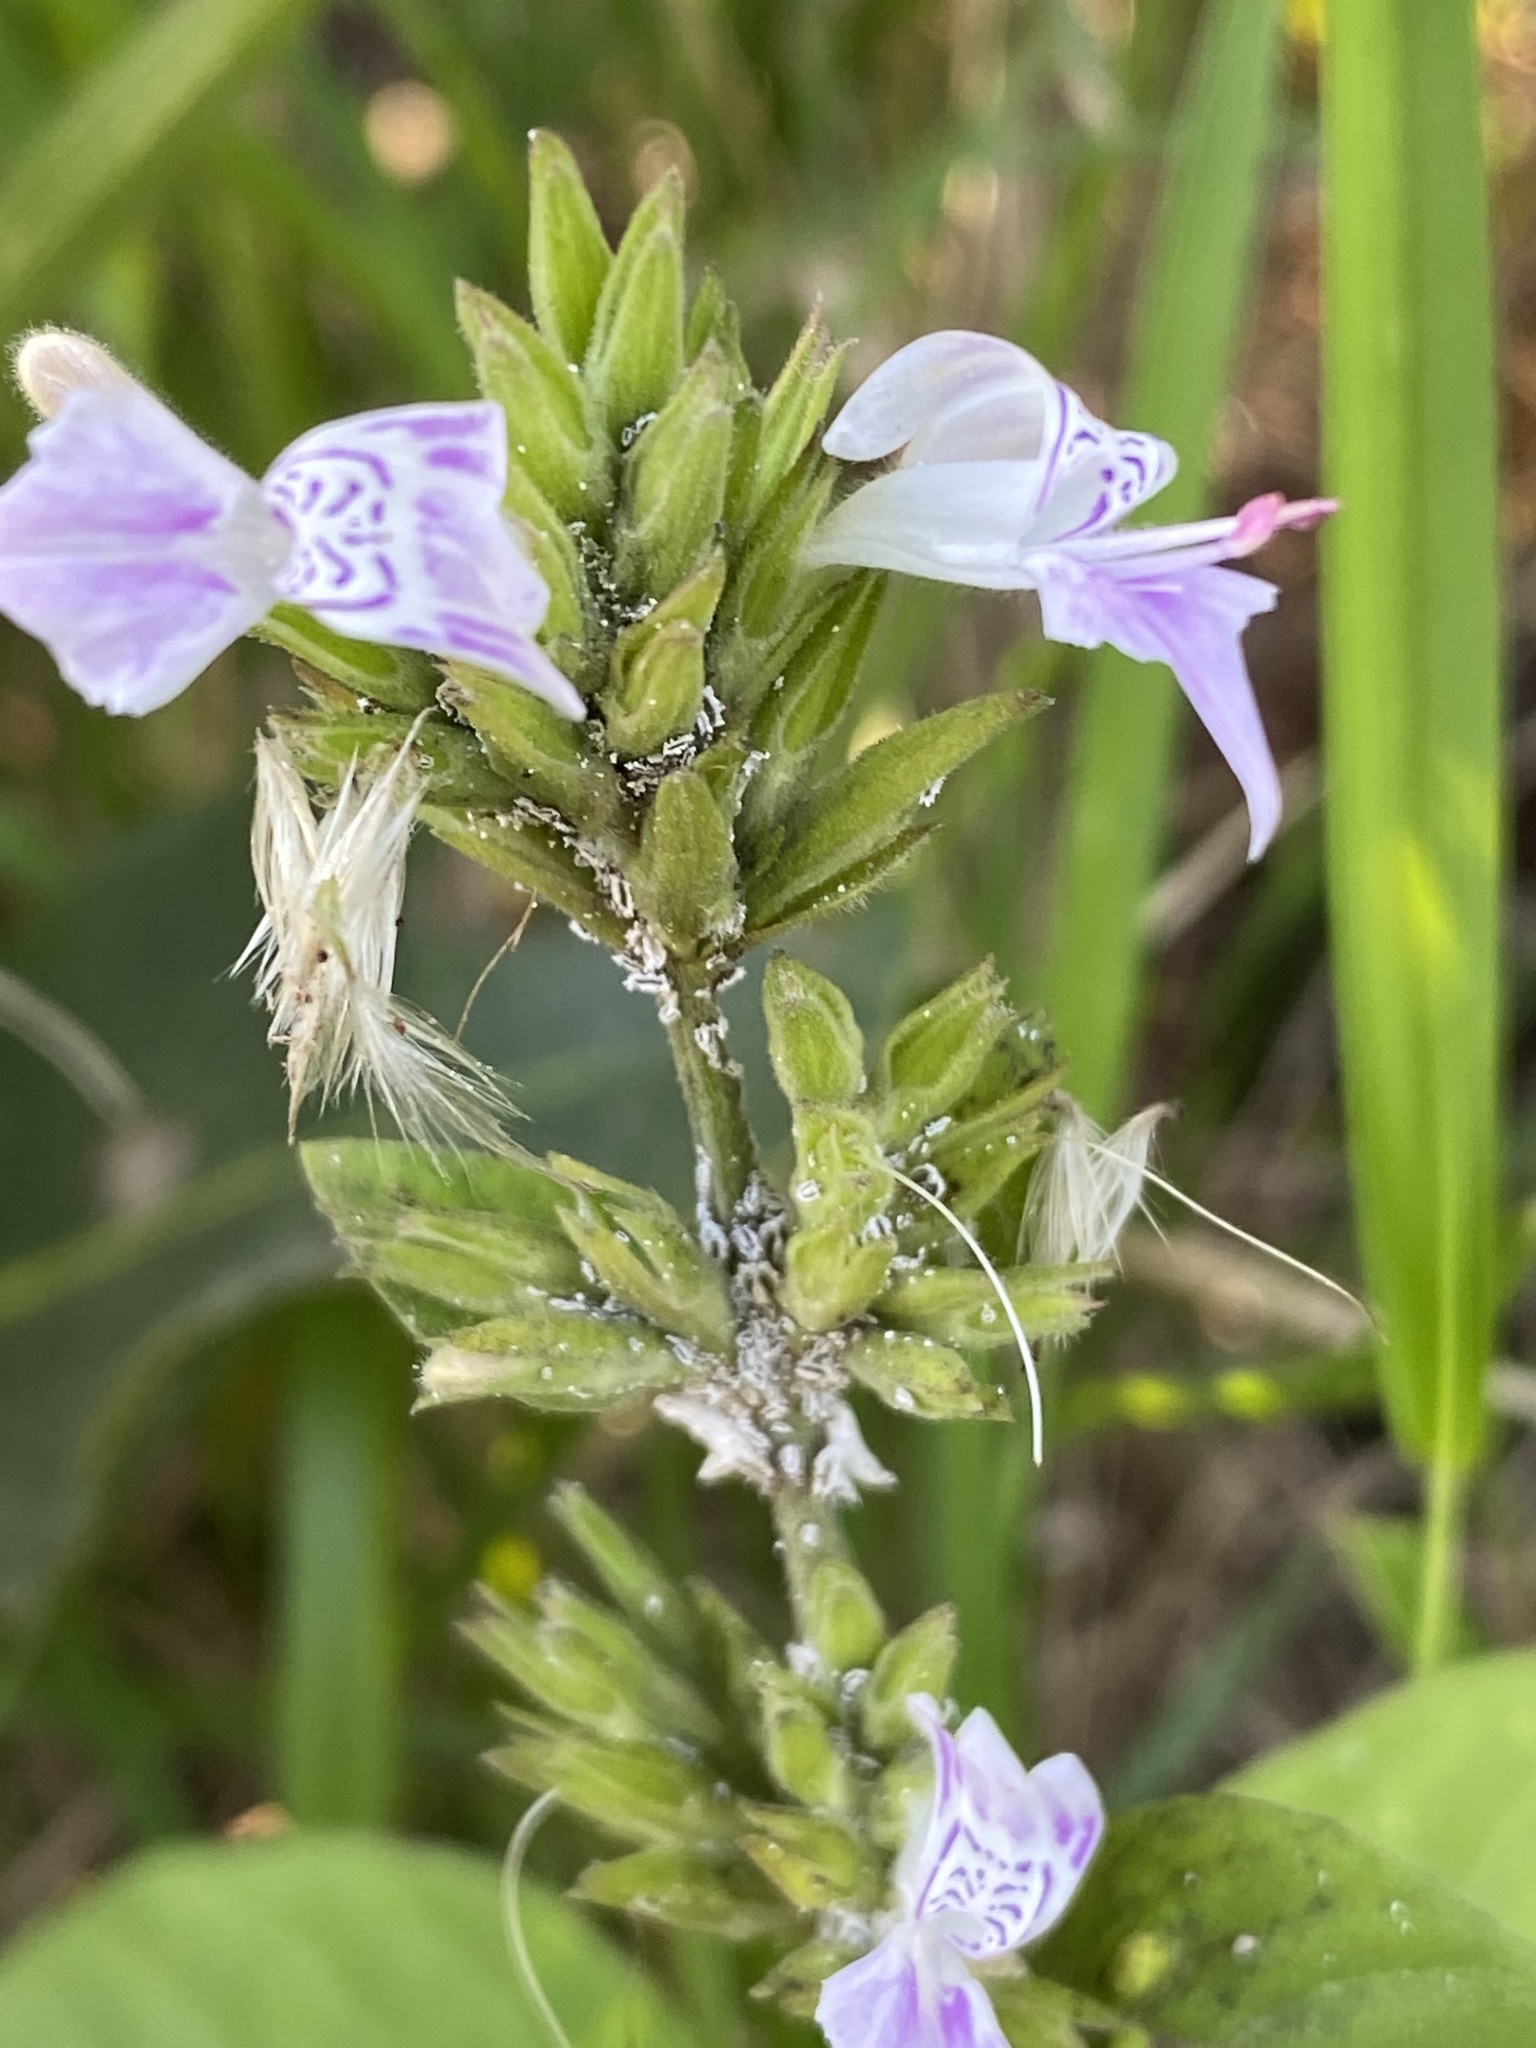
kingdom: Plantae
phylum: Tracheophyta
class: Magnoliopsida
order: Lamiales
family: Acanthaceae
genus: Hypoestes
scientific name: Hypoestes forskaolii
